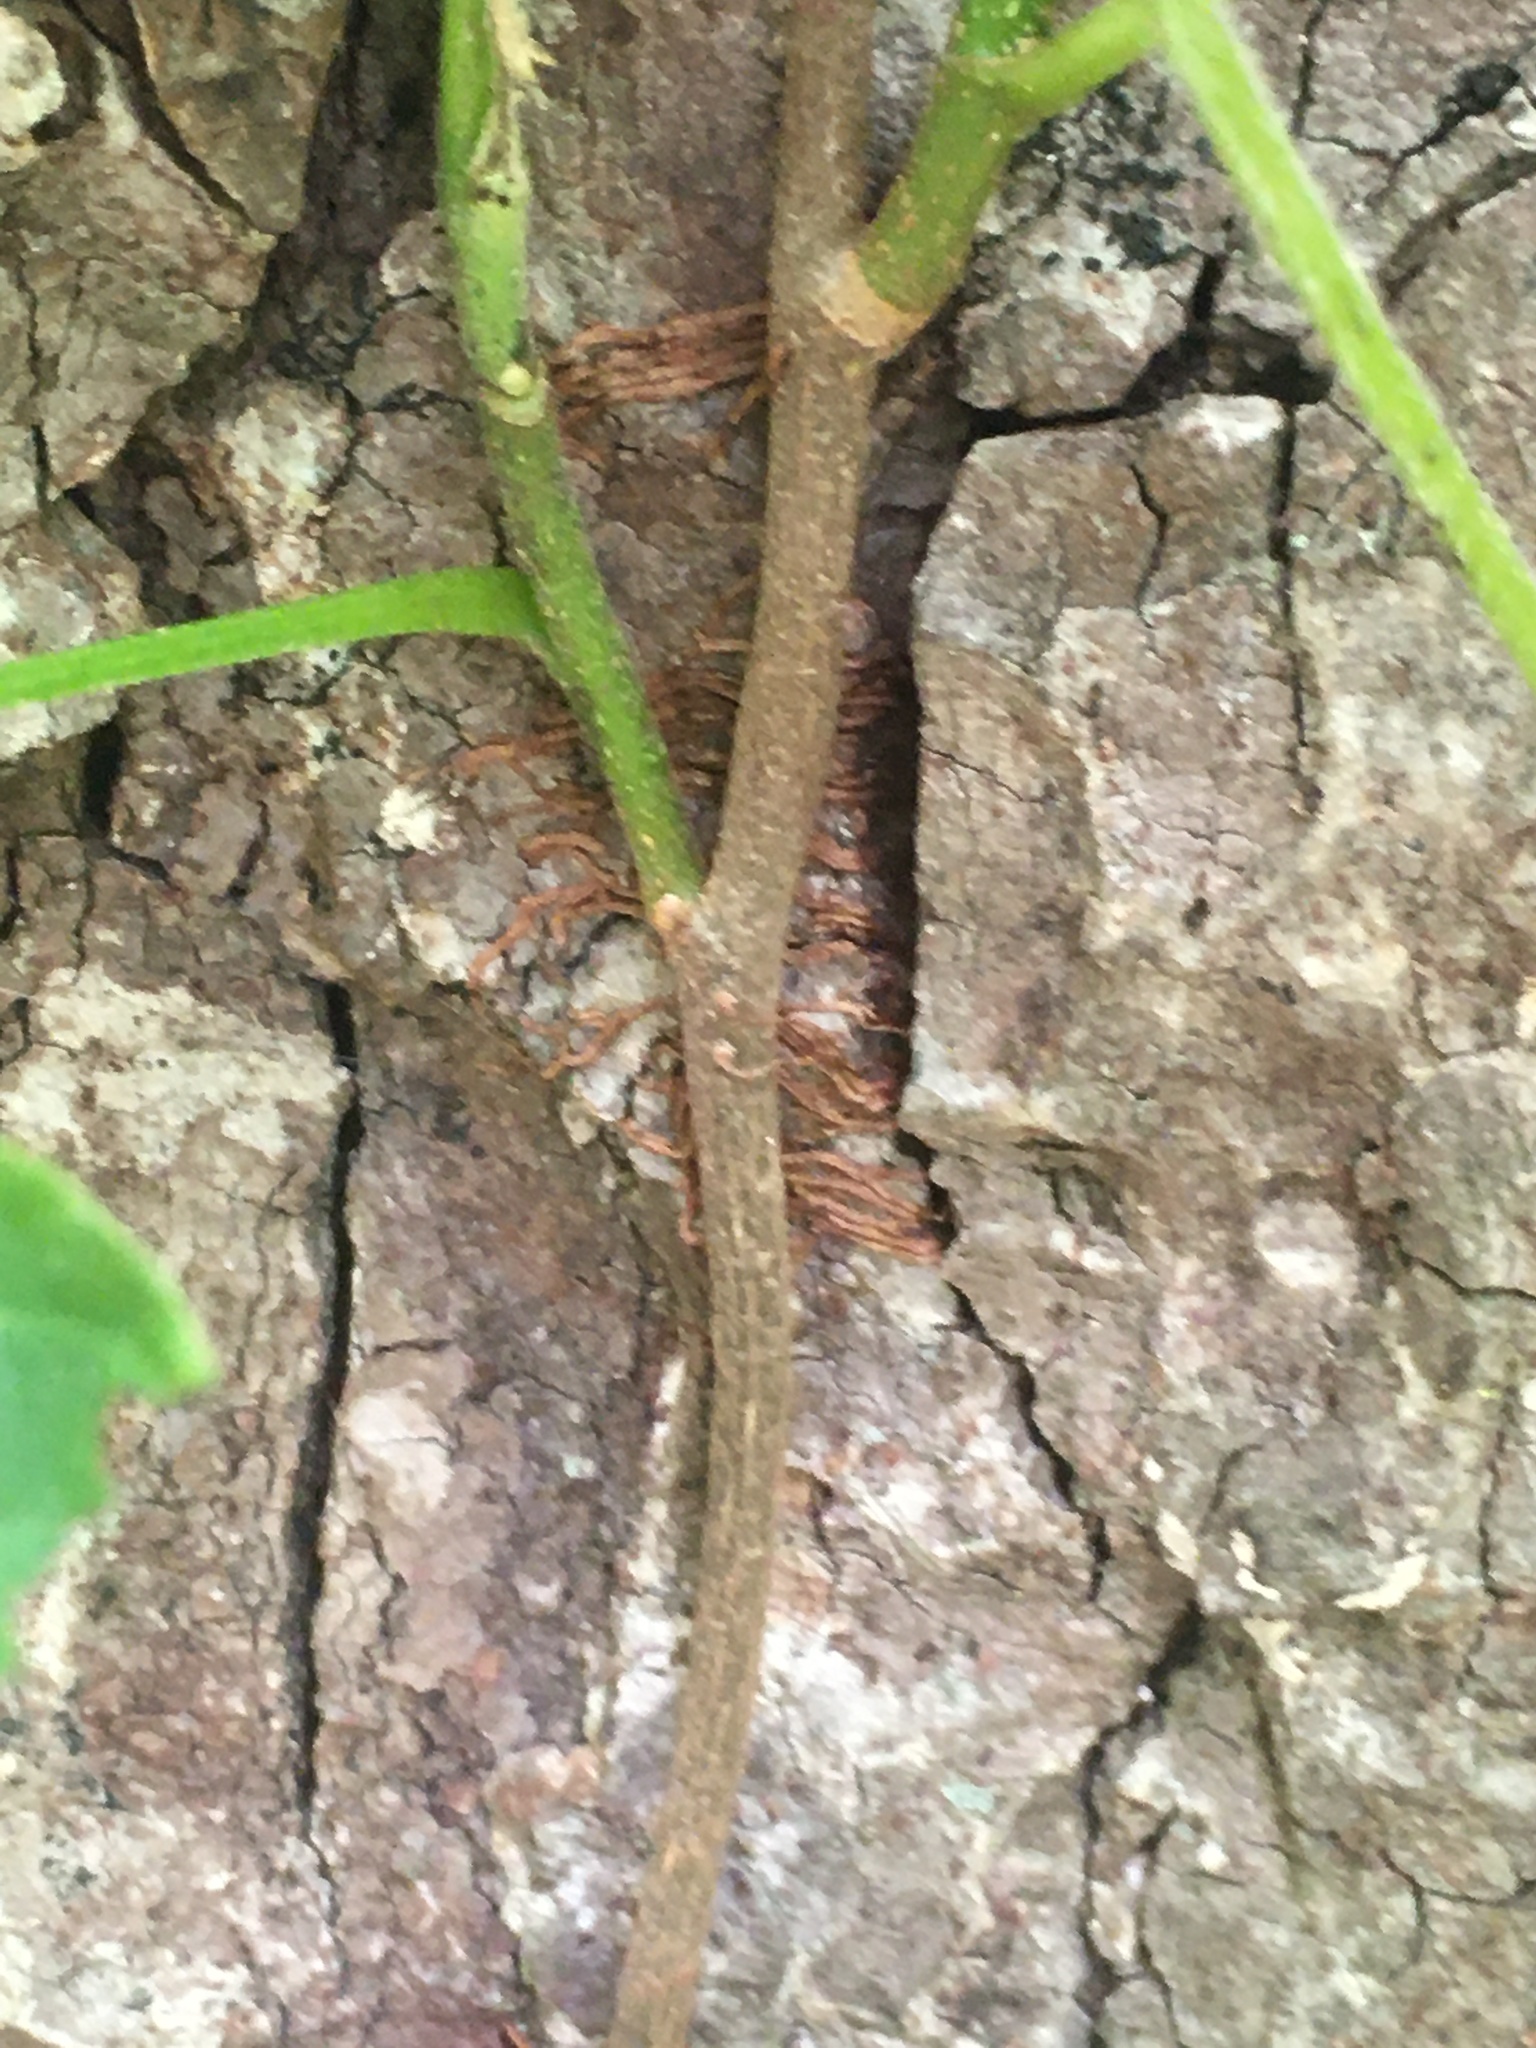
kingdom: Plantae
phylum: Tracheophyta
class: Magnoliopsida
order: Sapindales
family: Anacardiaceae
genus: Toxicodendron
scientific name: Toxicodendron radicans
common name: Poison ivy
